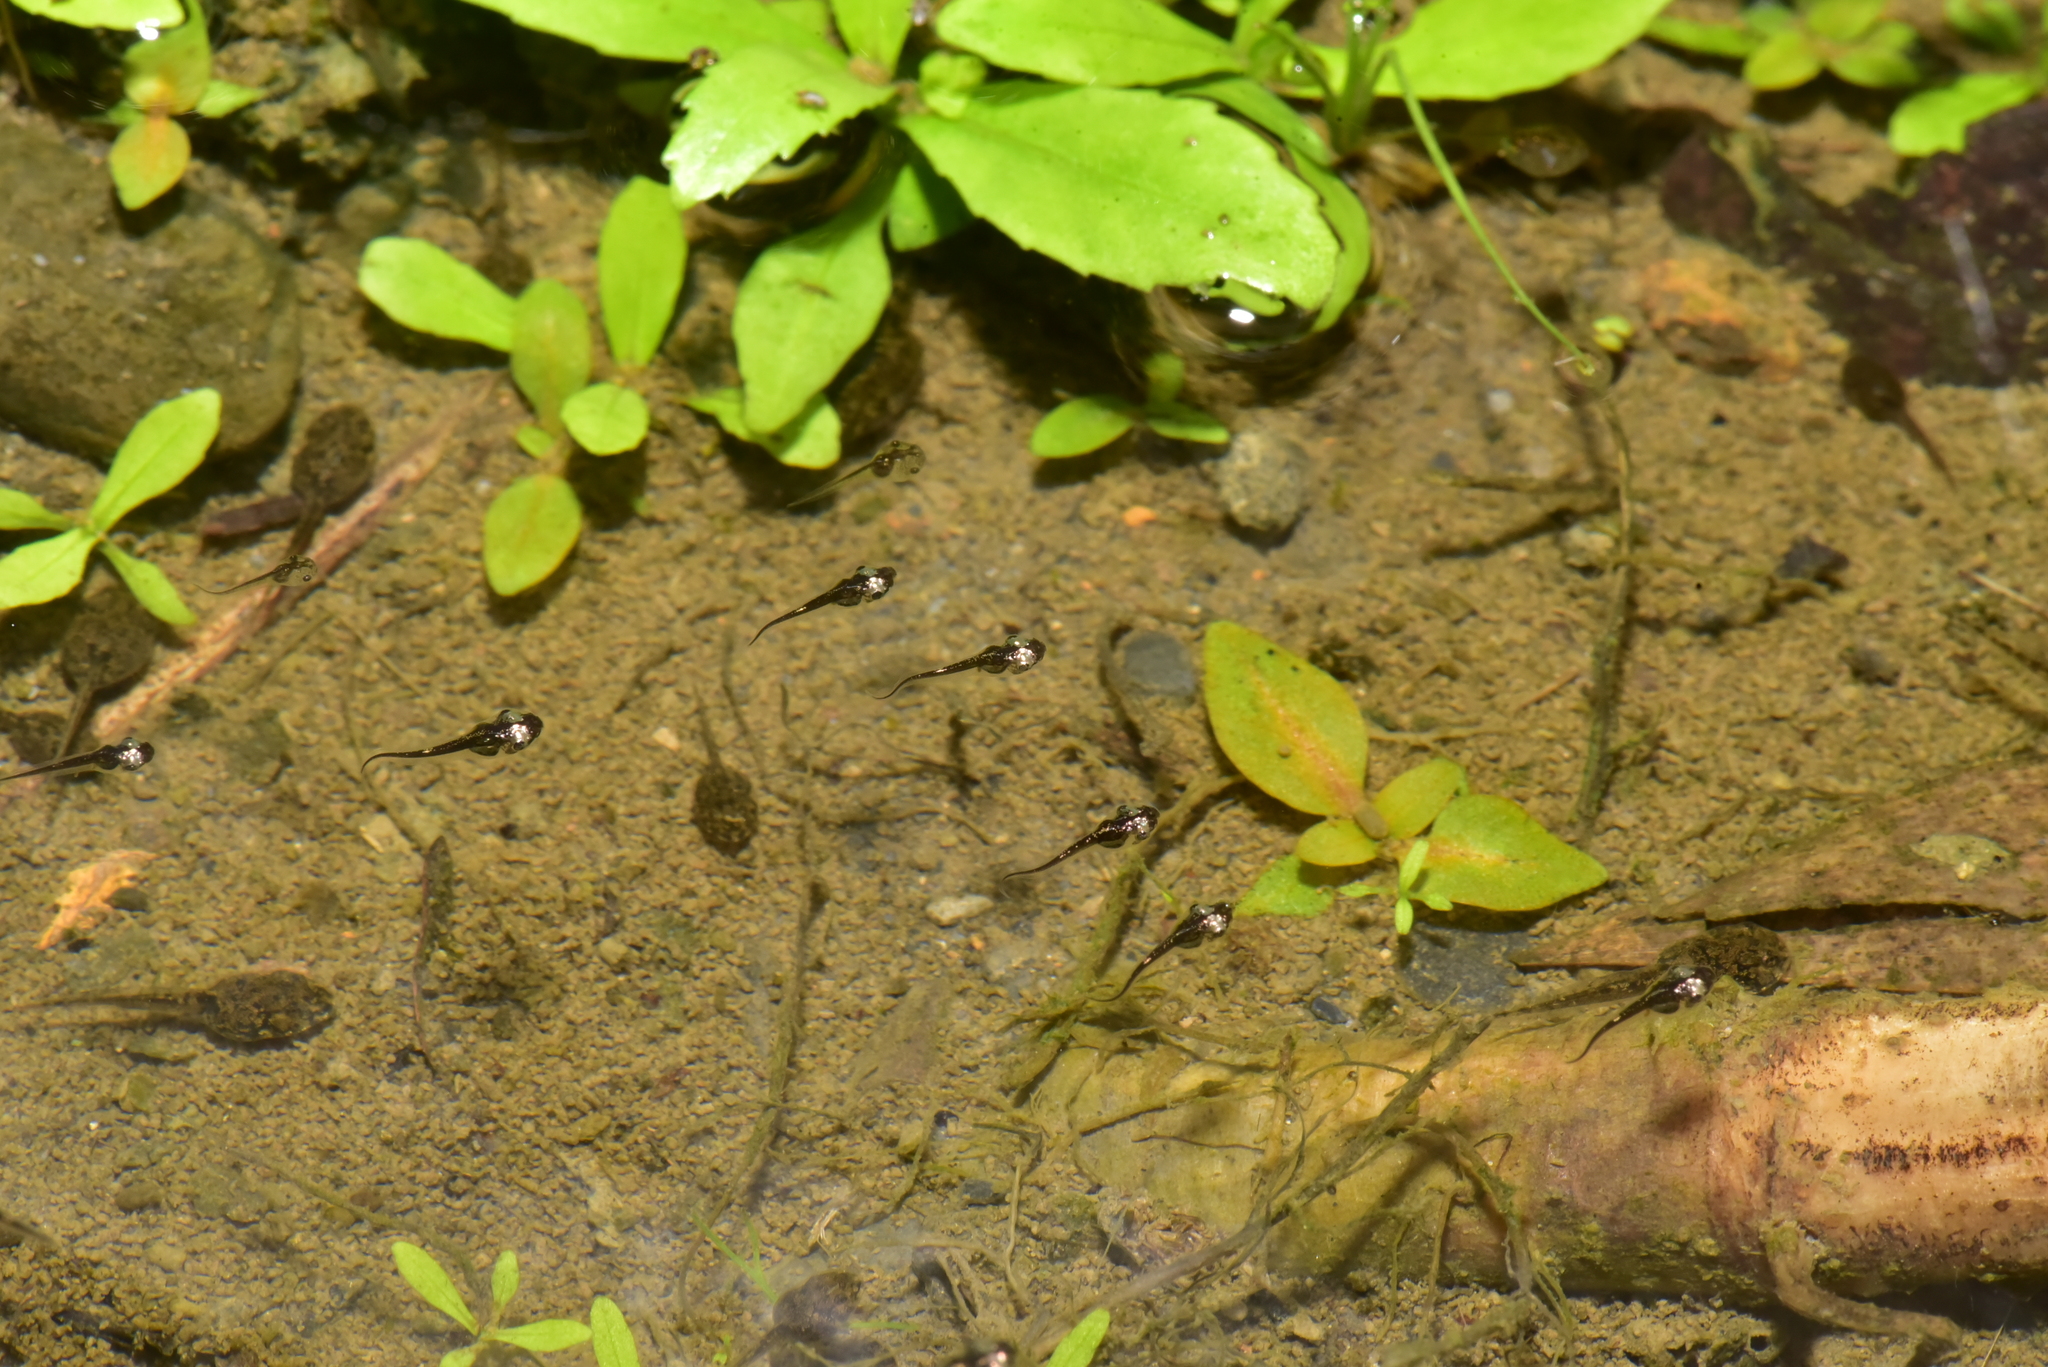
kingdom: Animalia
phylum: Chordata
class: Amphibia
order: Anura
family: Microhylidae
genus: Microhyla
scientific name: Microhyla heymonsi
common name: Taiwan rice frog,dark sided chorus frog
